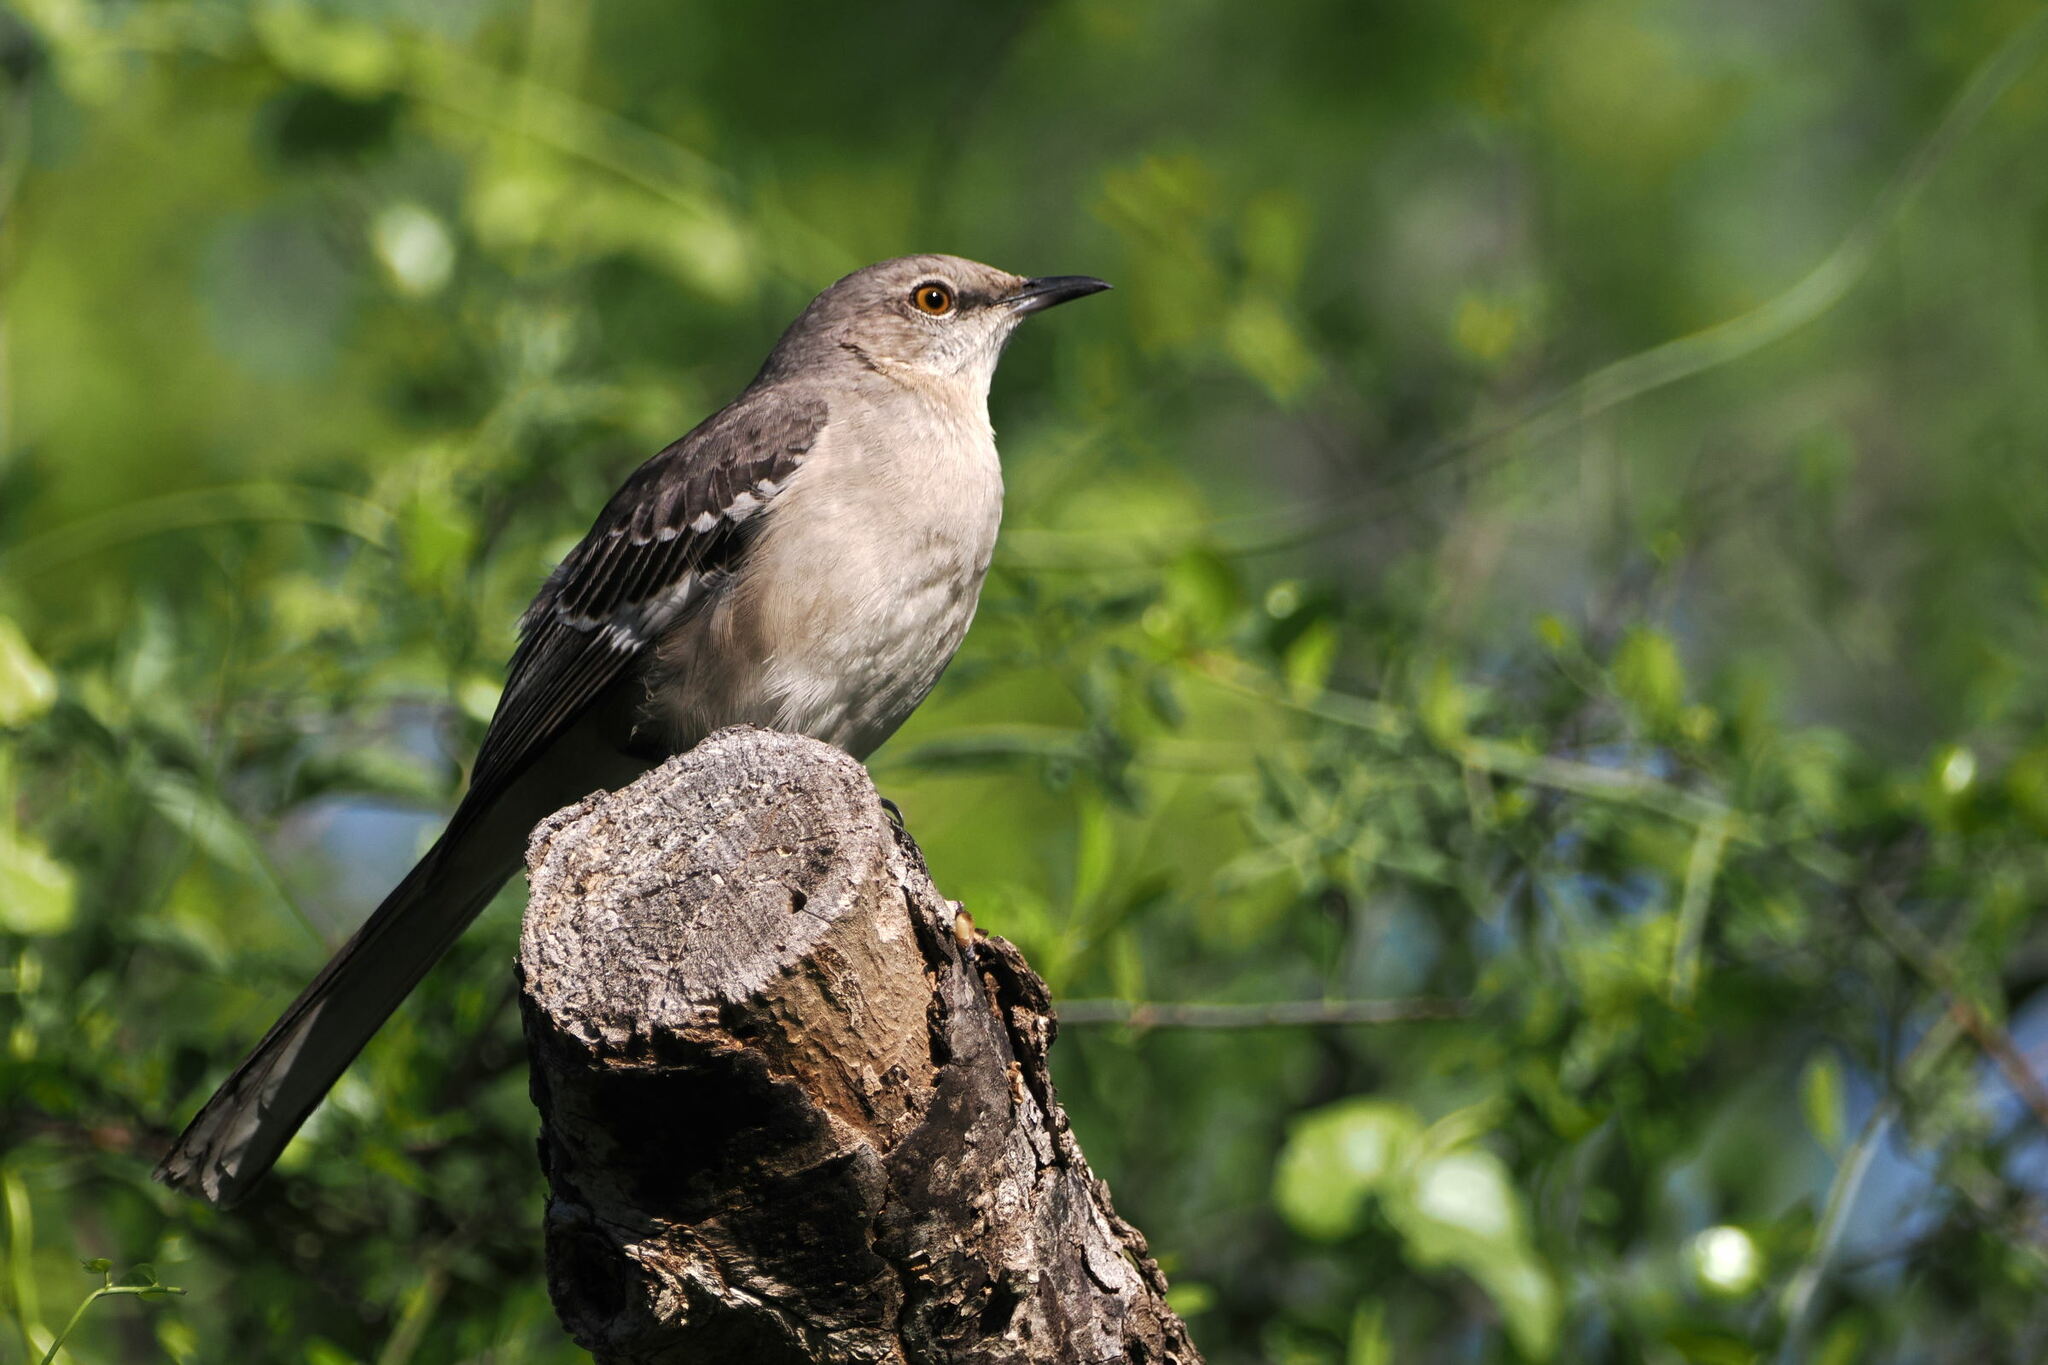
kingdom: Animalia
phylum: Chordata
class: Aves
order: Passeriformes
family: Mimidae
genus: Mimus
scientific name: Mimus polyglottos
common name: Northern mockingbird
